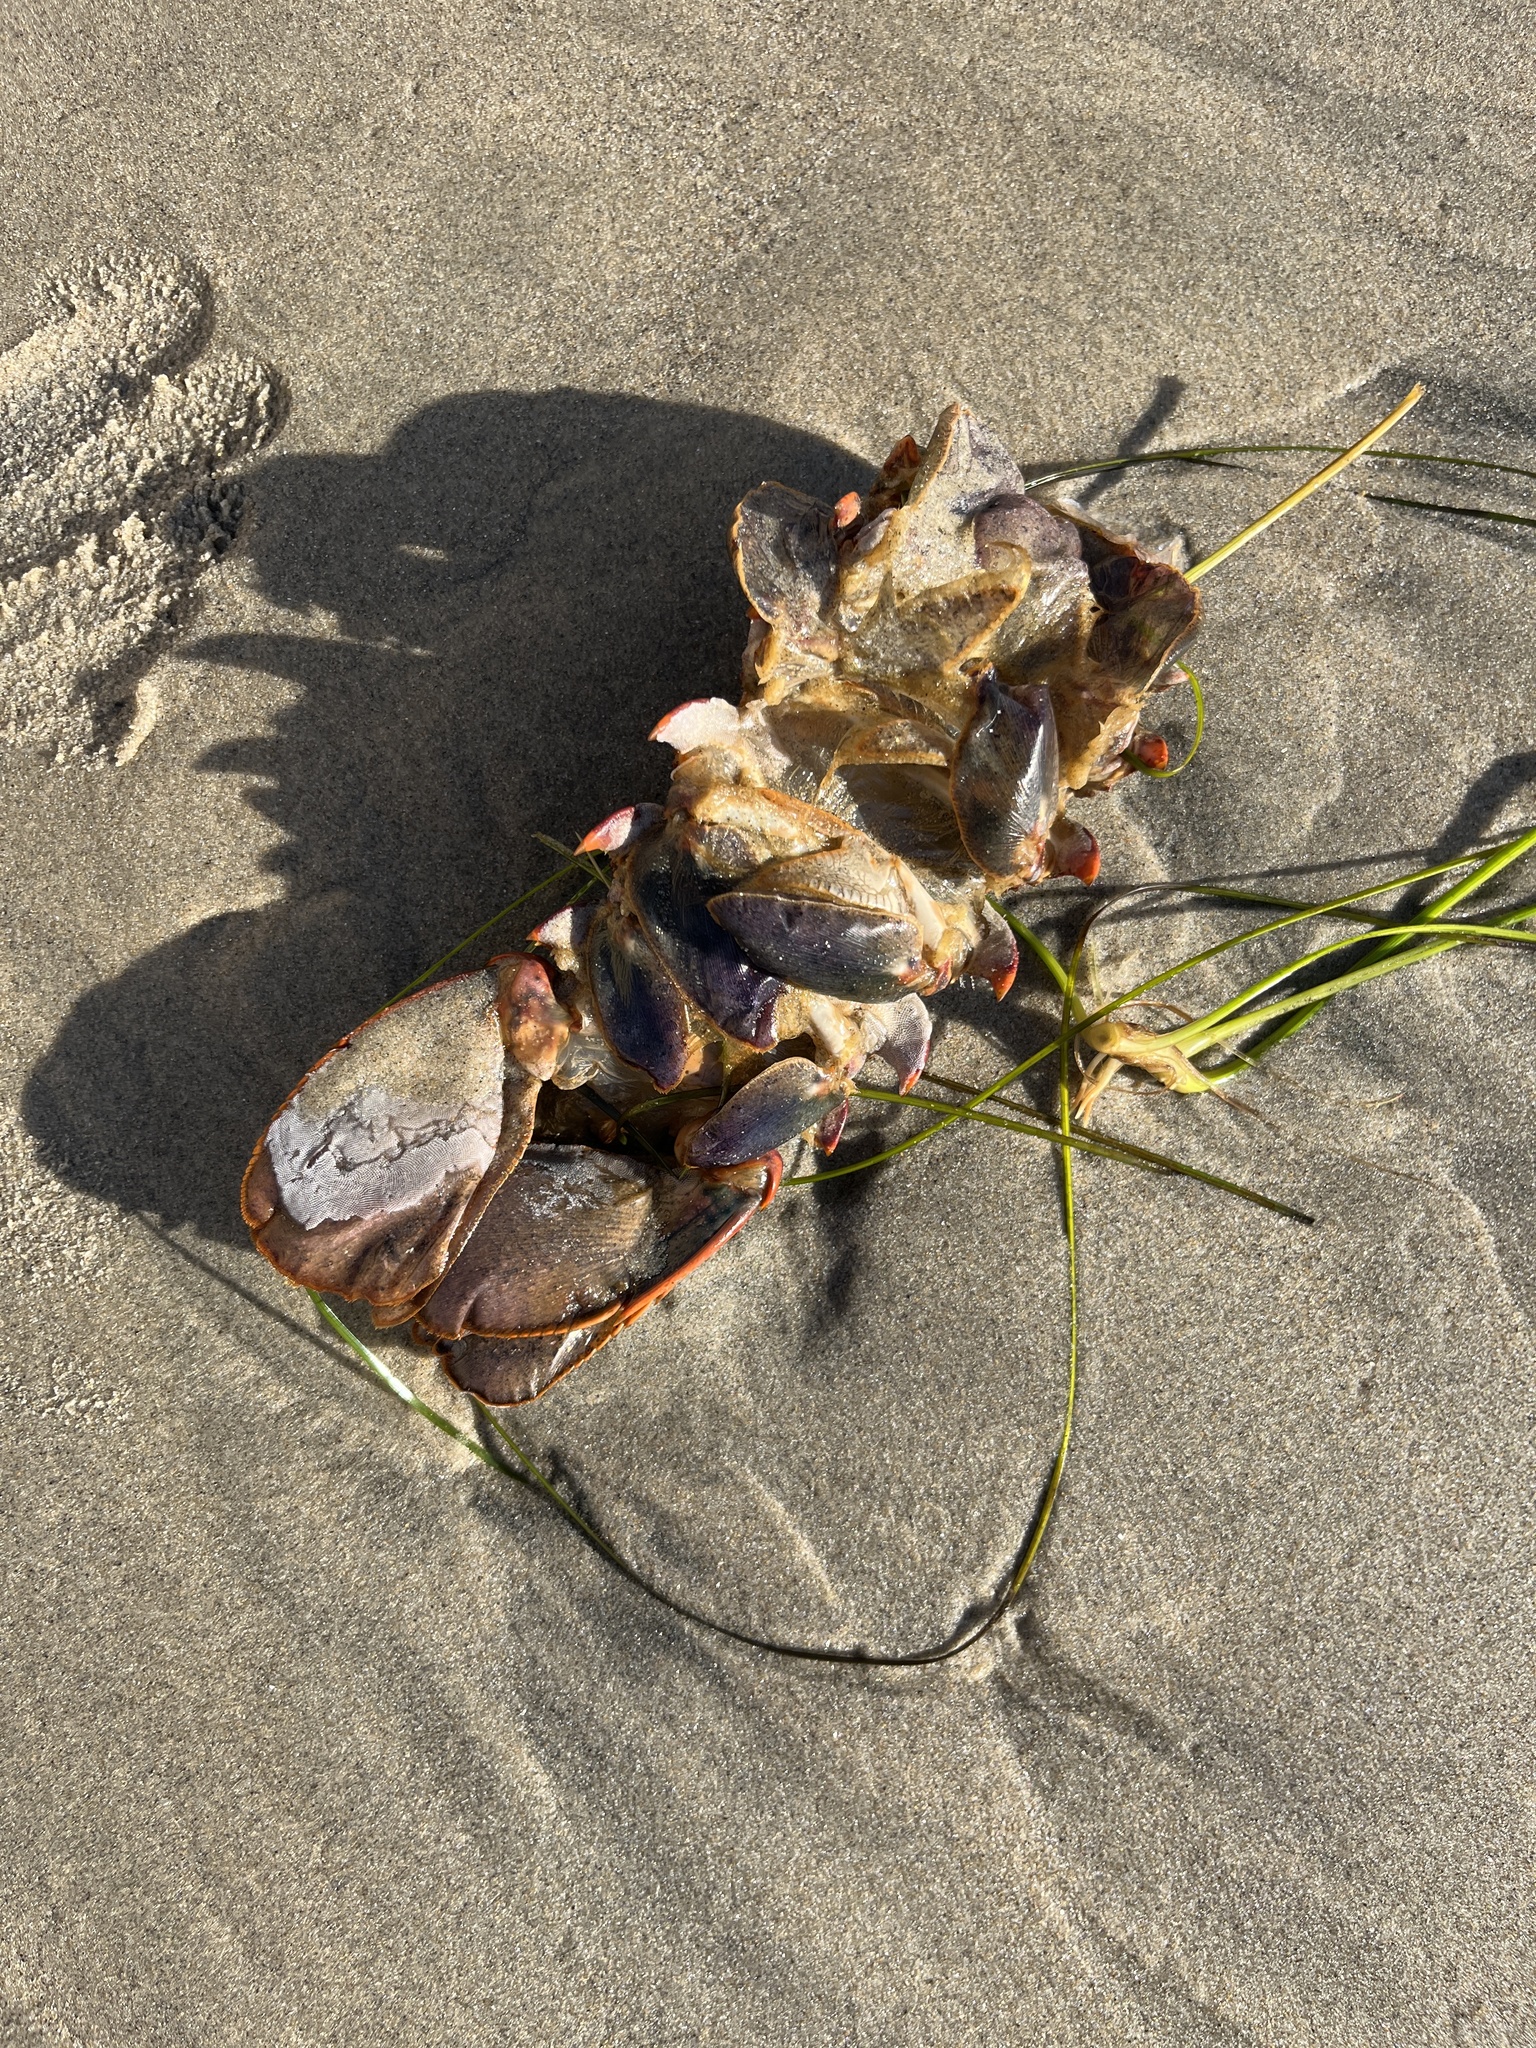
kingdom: Animalia
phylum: Arthropoda
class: Malacostraca
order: Decapoda
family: Palinuridae
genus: Panulirus
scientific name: Panulirus interruptus
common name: California spiny lobster
